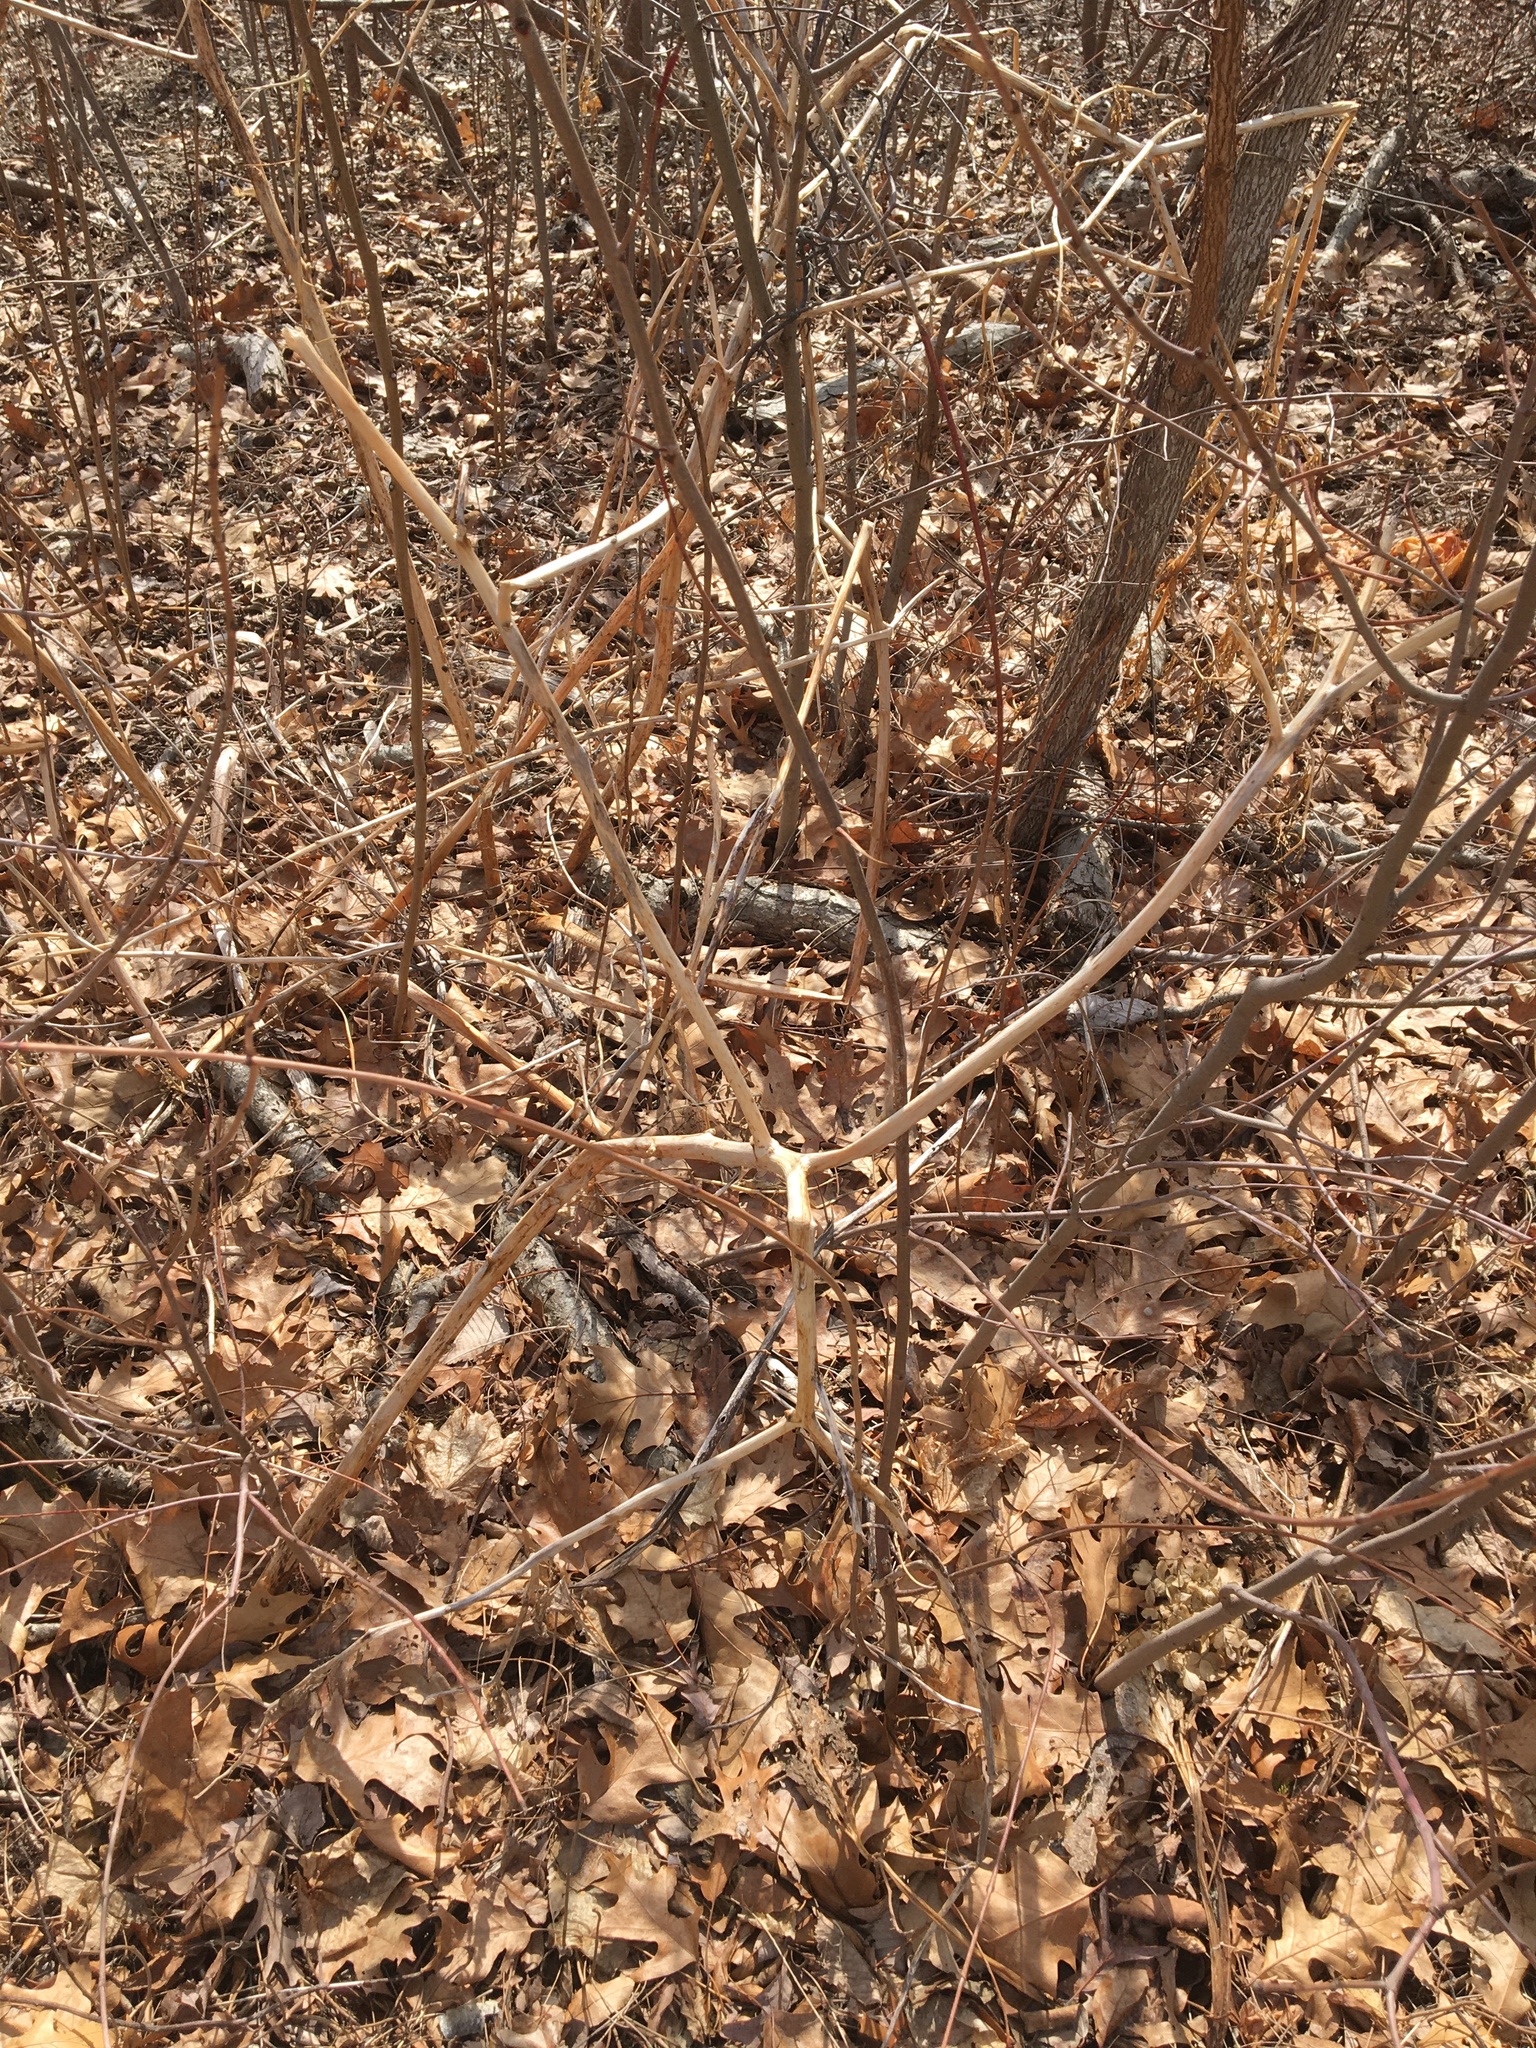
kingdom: Plantae
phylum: Tracheophyta
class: Magnoliopsida
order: Caryophyllales
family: Phytolaccaceae
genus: Phytolacca
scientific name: Phytolacca americana
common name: American pokeweed
